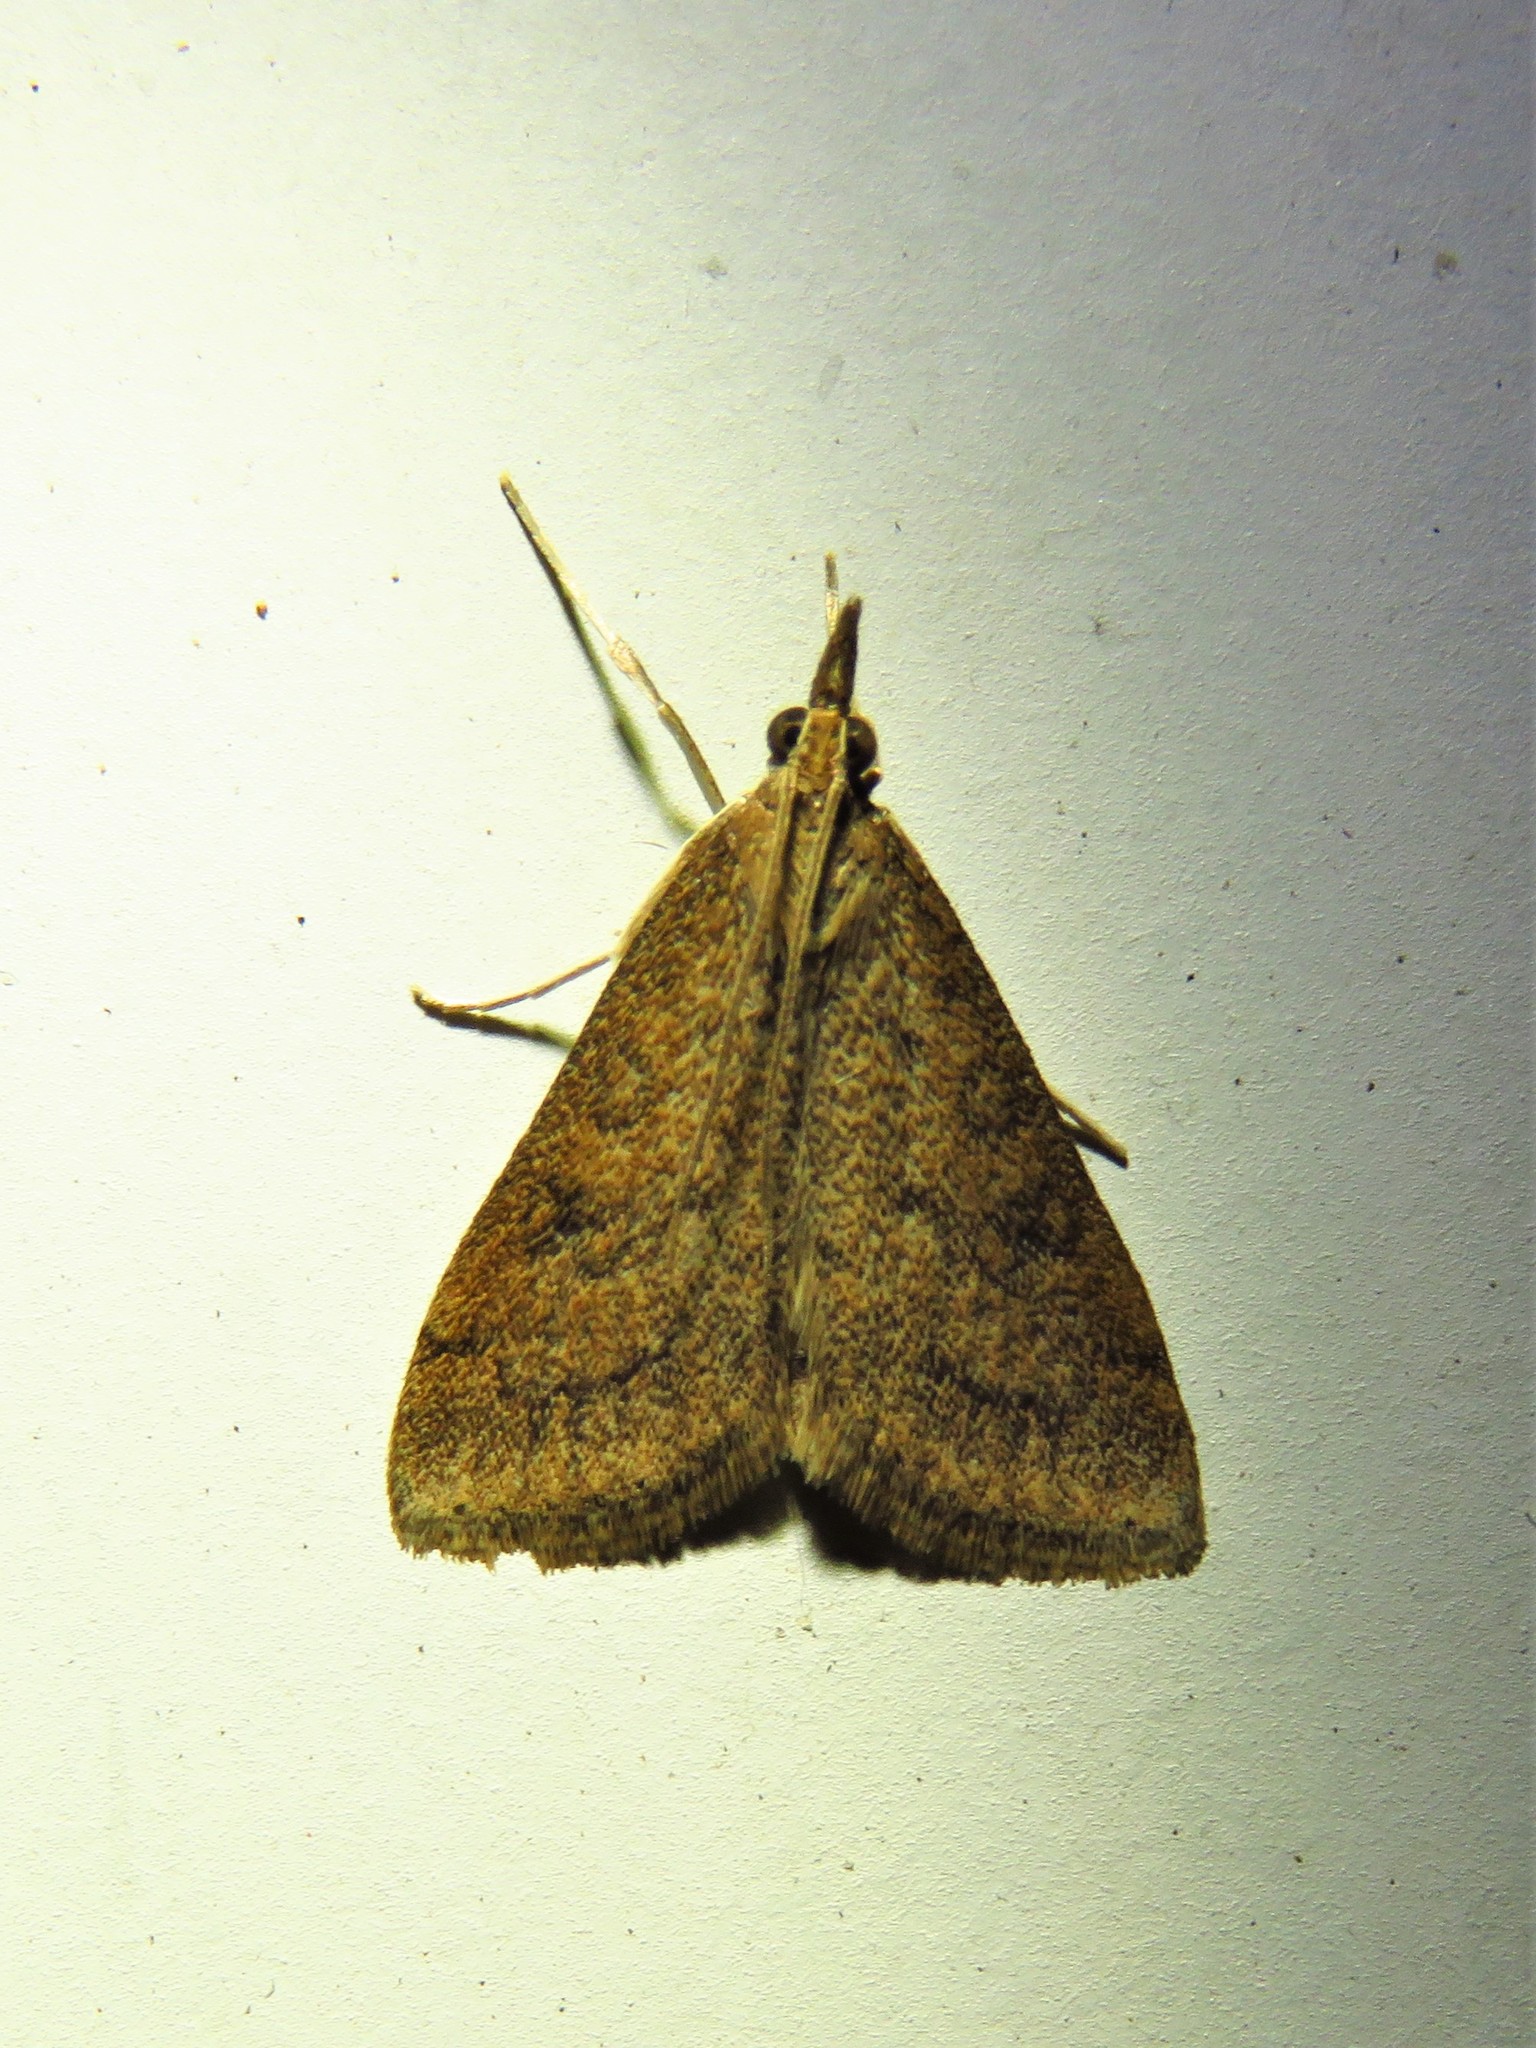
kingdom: Animalia
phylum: Arthropoda
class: Insecta
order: Lepidoptera
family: Crambidae
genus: Udea
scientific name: Udea rubigalis
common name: Celery leaftier moth
